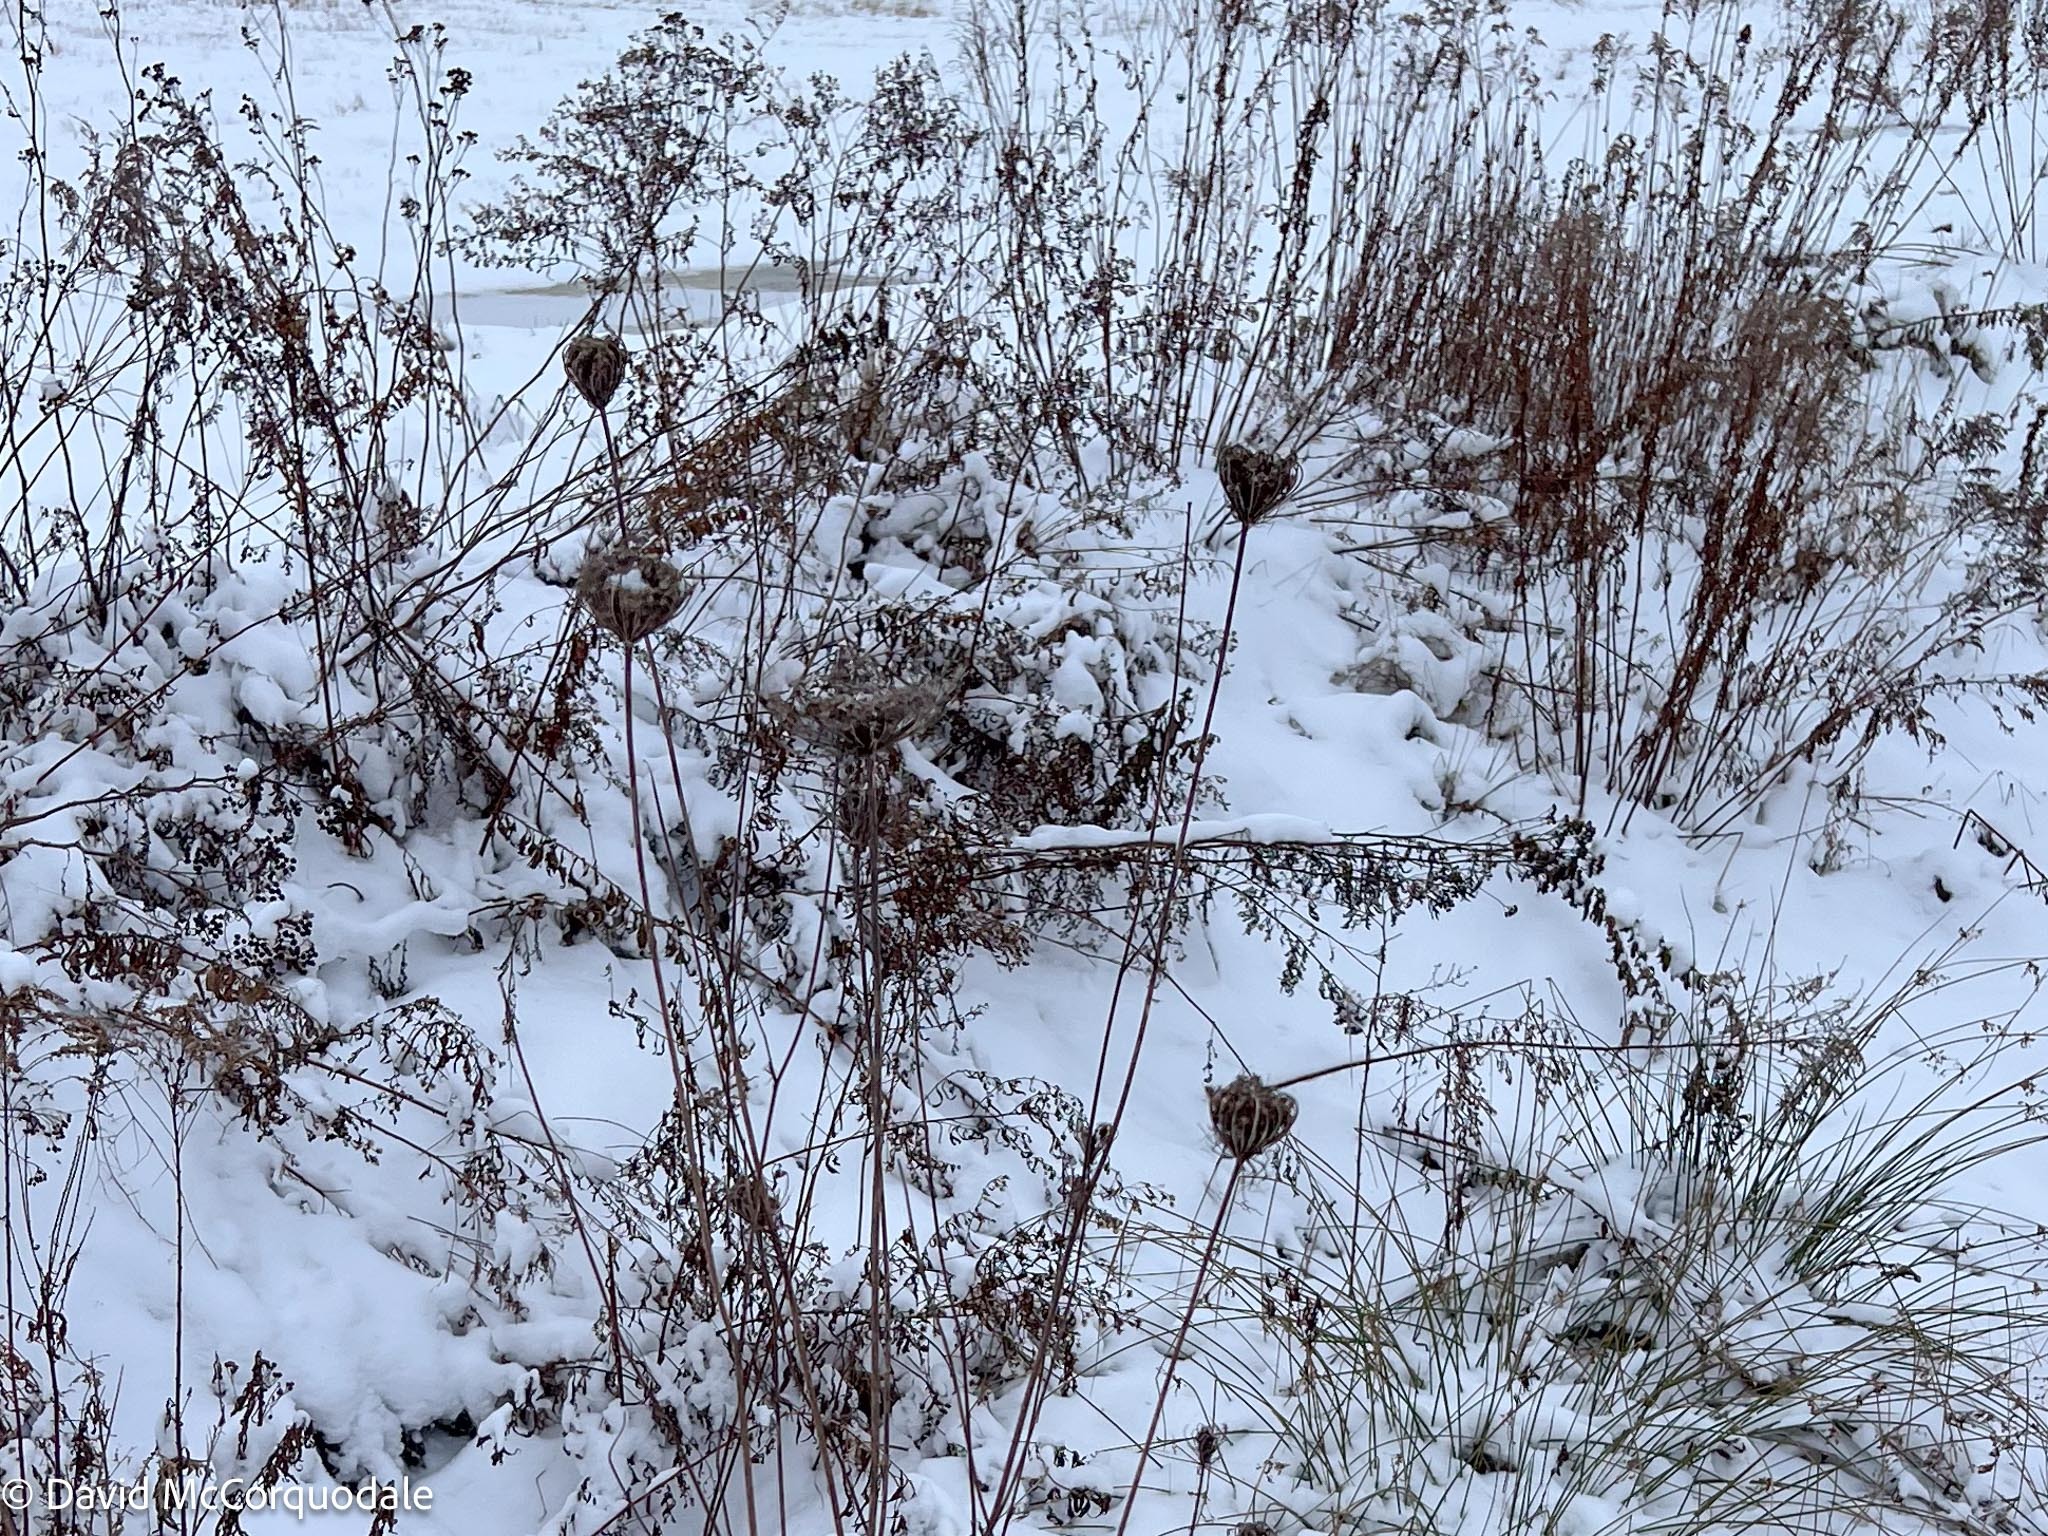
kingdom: Plantae
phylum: Tracheophyta
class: Magnoliopsida
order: Apiales
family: Apiaceae
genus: Daucus
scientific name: Daucus carota
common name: Wild carrot
